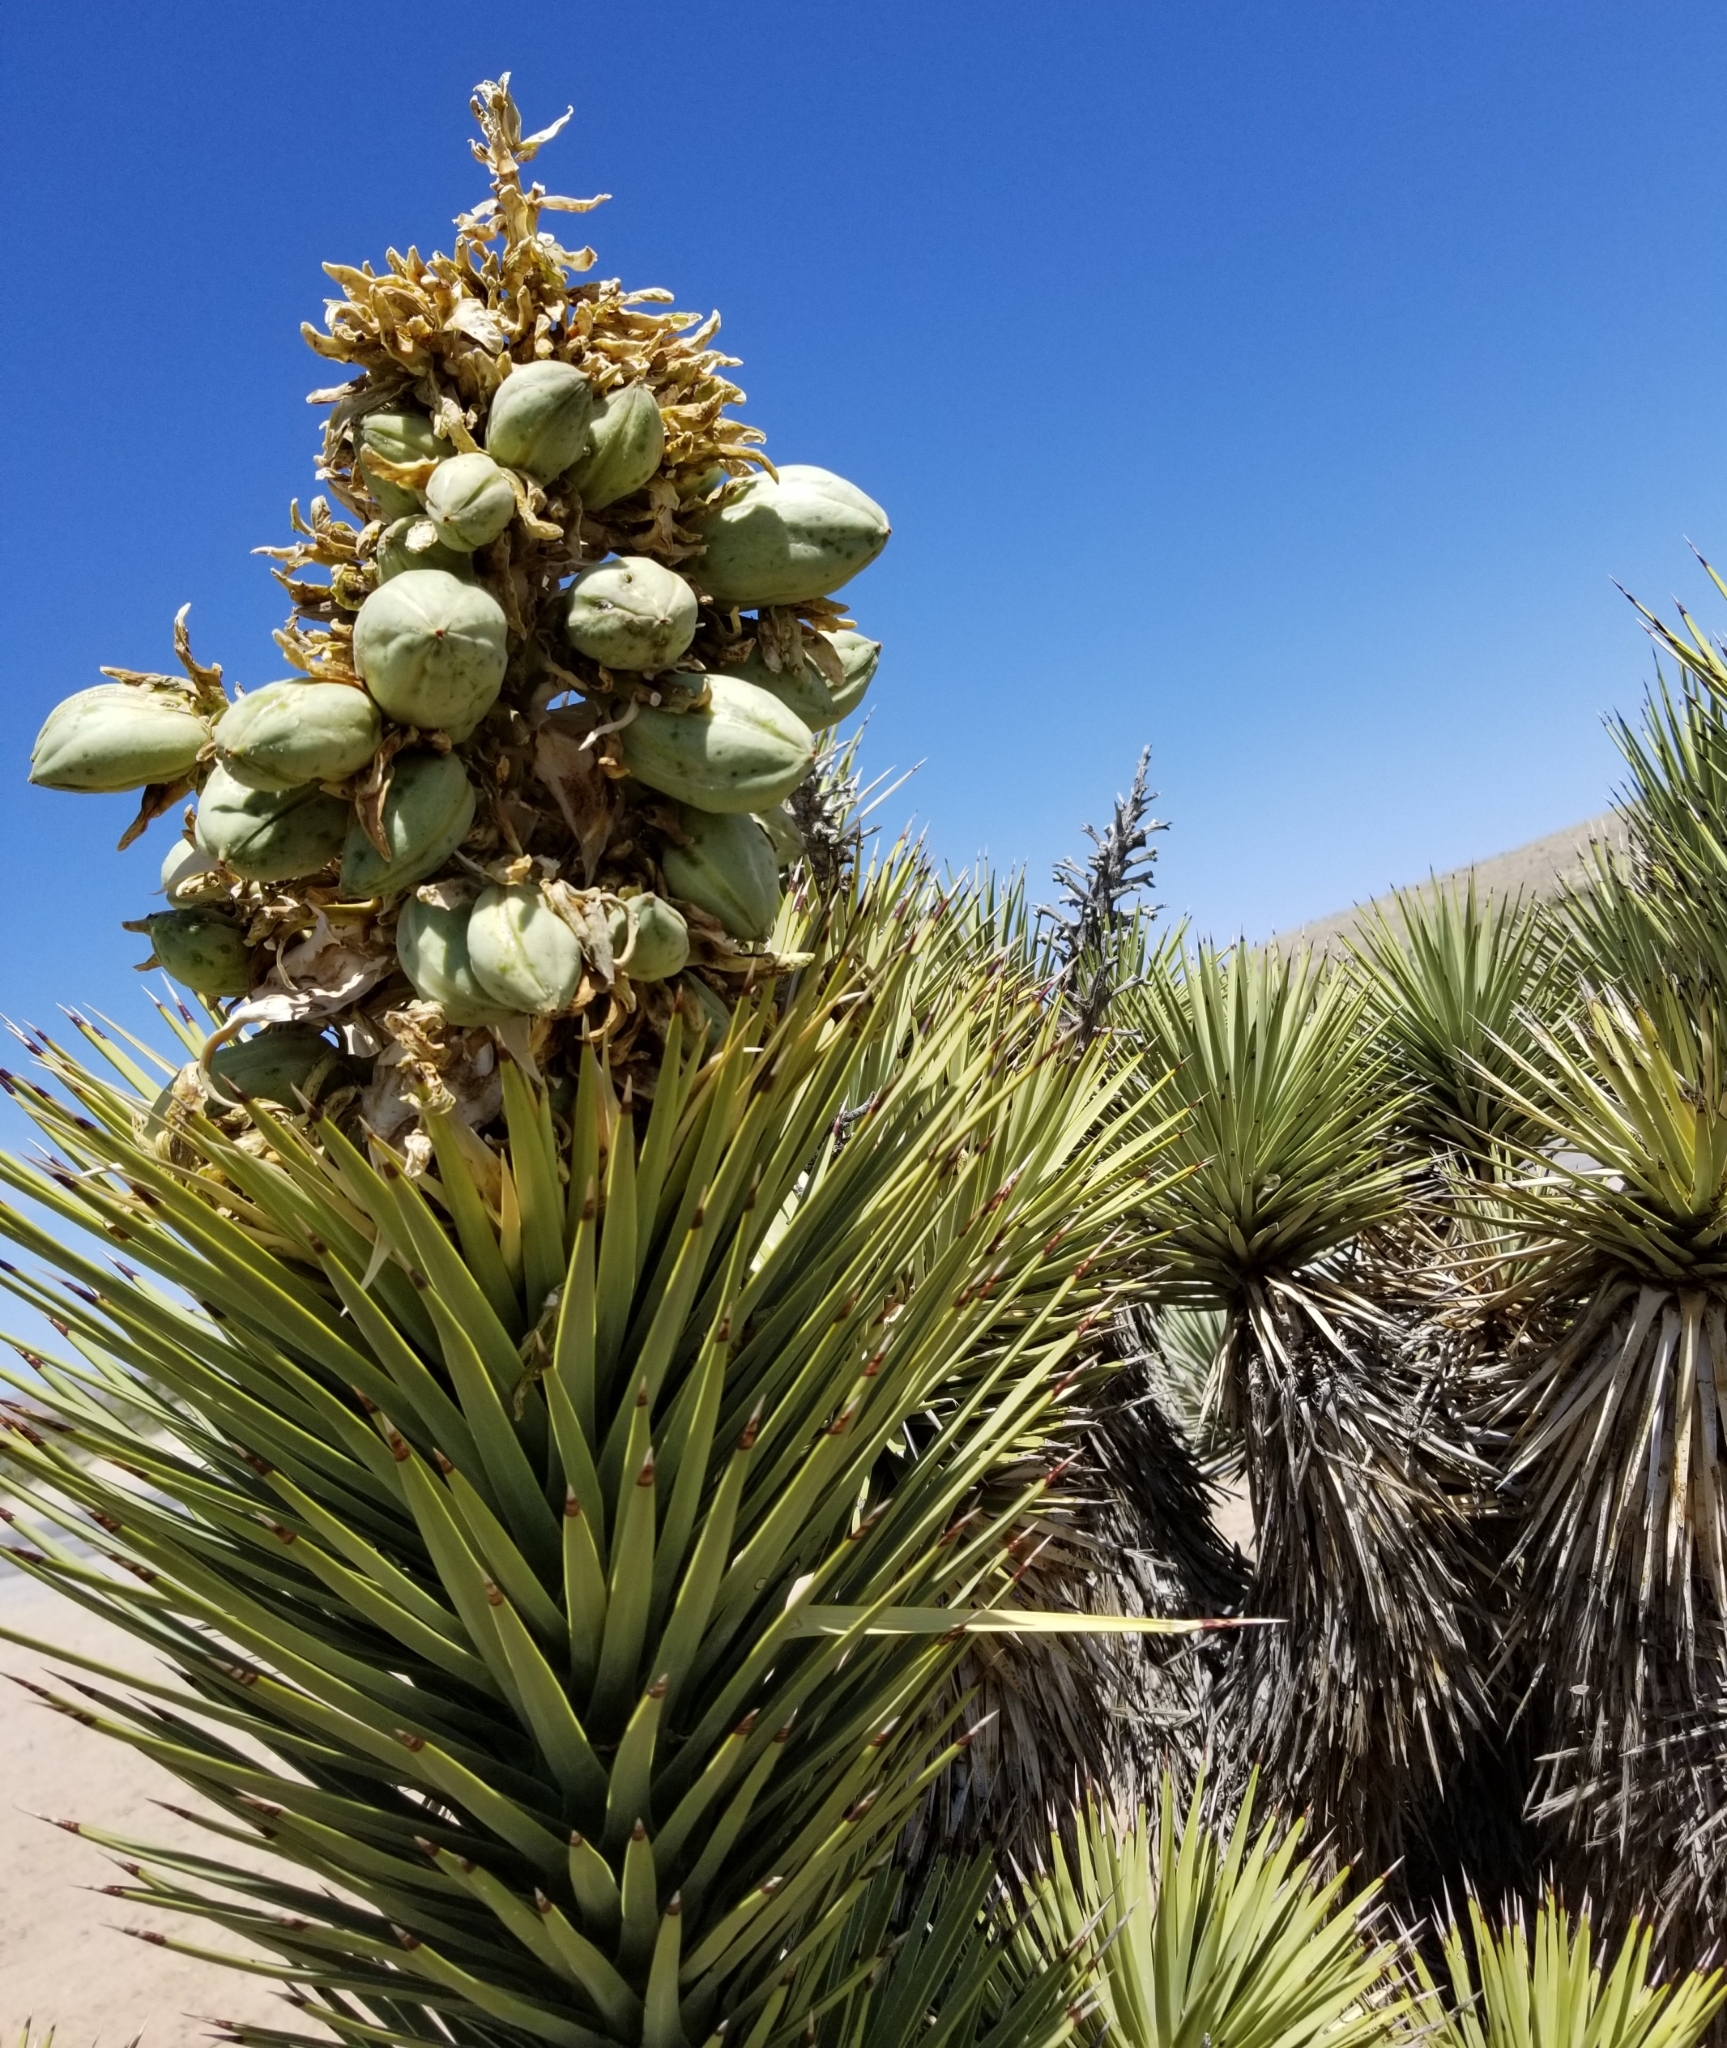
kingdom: Plantae
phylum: Tracheophyta
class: Liliopsida
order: Asparagales
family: Asparagaceae
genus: Yucca
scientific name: Yucca brevifolia
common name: Joshua tree
